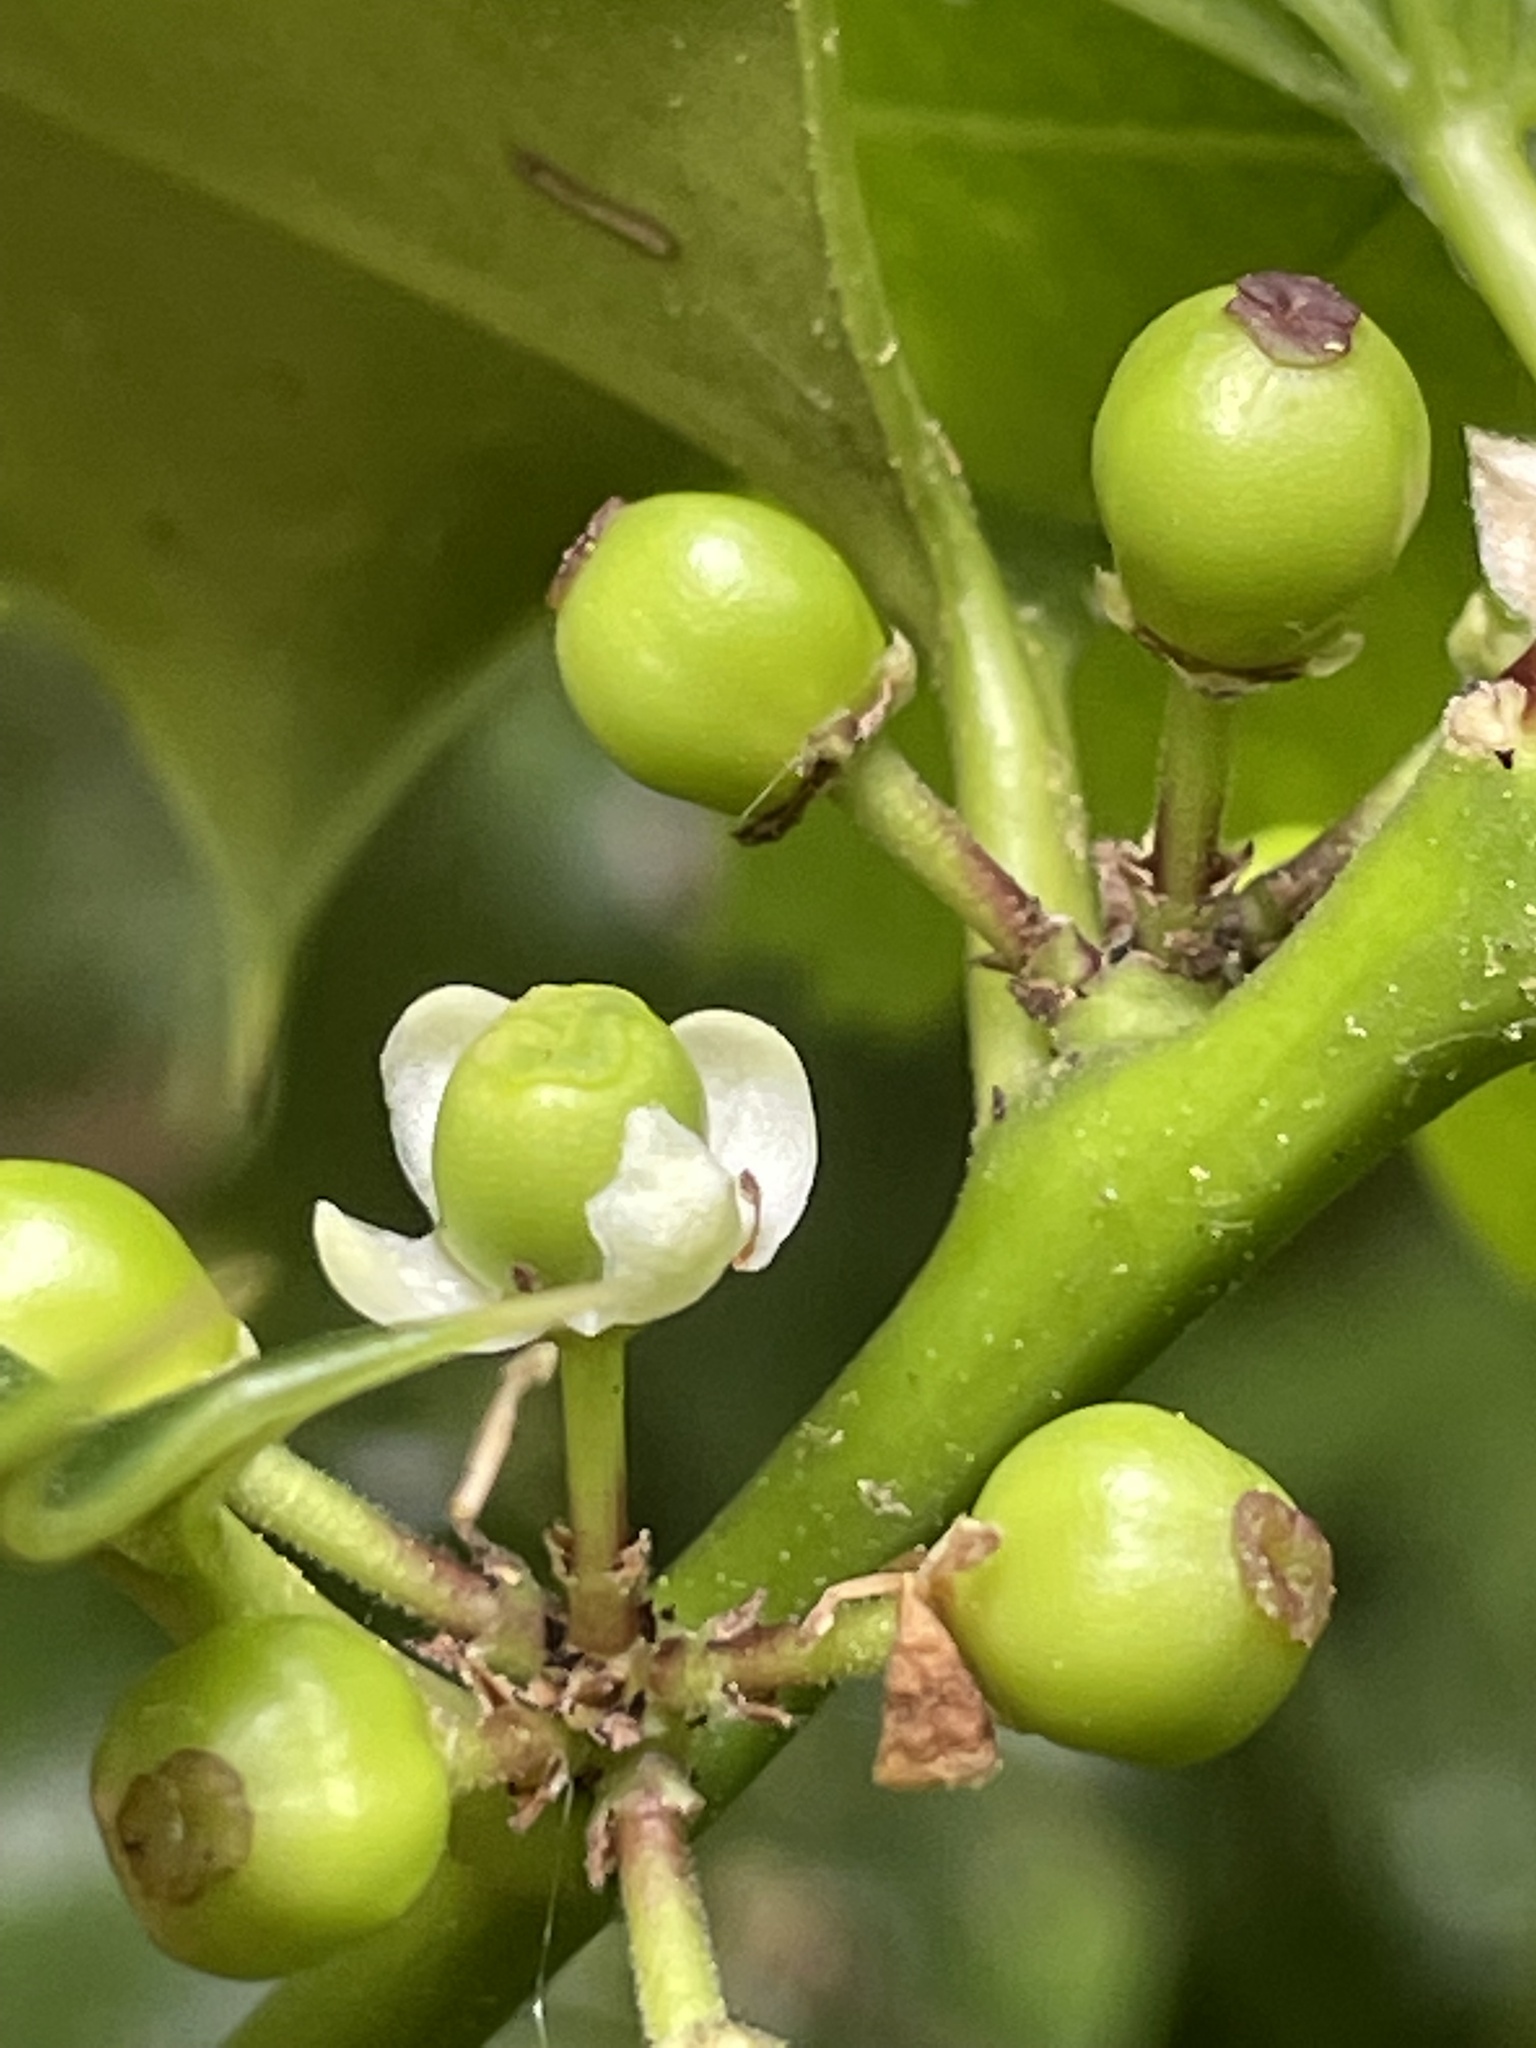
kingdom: Plantae
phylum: Tracheophyta
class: Magnoliopsida
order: Aquifoliales
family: Aquifoliaceae
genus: Ilex
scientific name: Ilex aquifolium
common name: English holly
